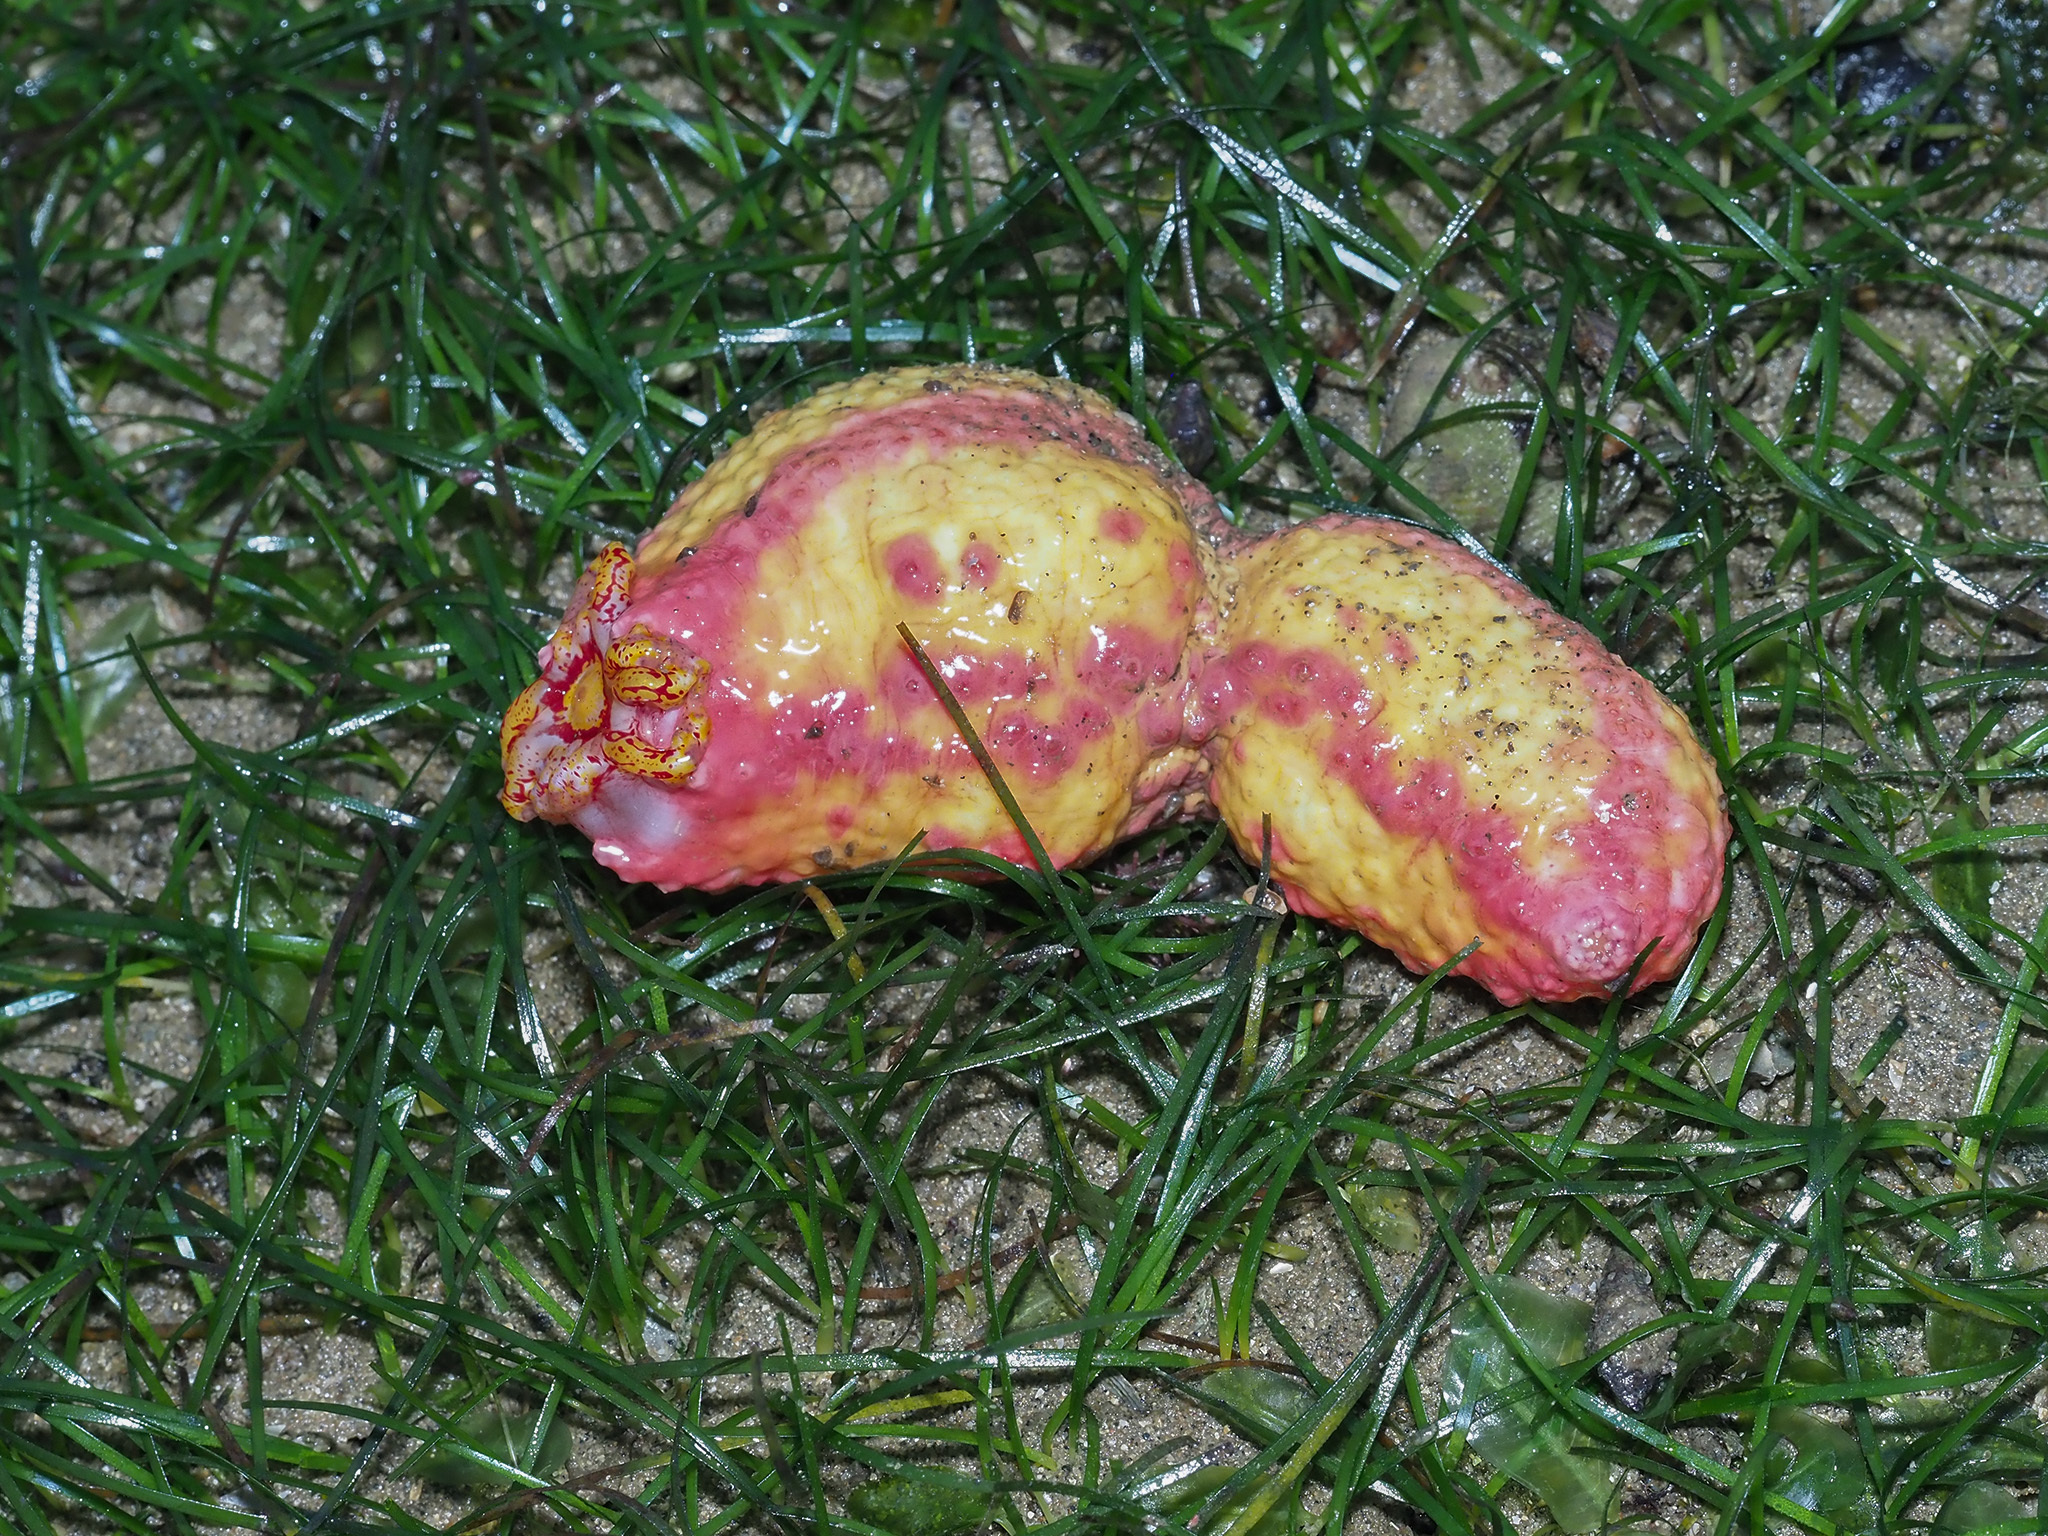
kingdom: Animalia
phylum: Echinodermata
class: Holothuroidea
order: Dendrochirotida
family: Cucumariidae
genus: Cercodemas
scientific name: Cercodemas anceps
